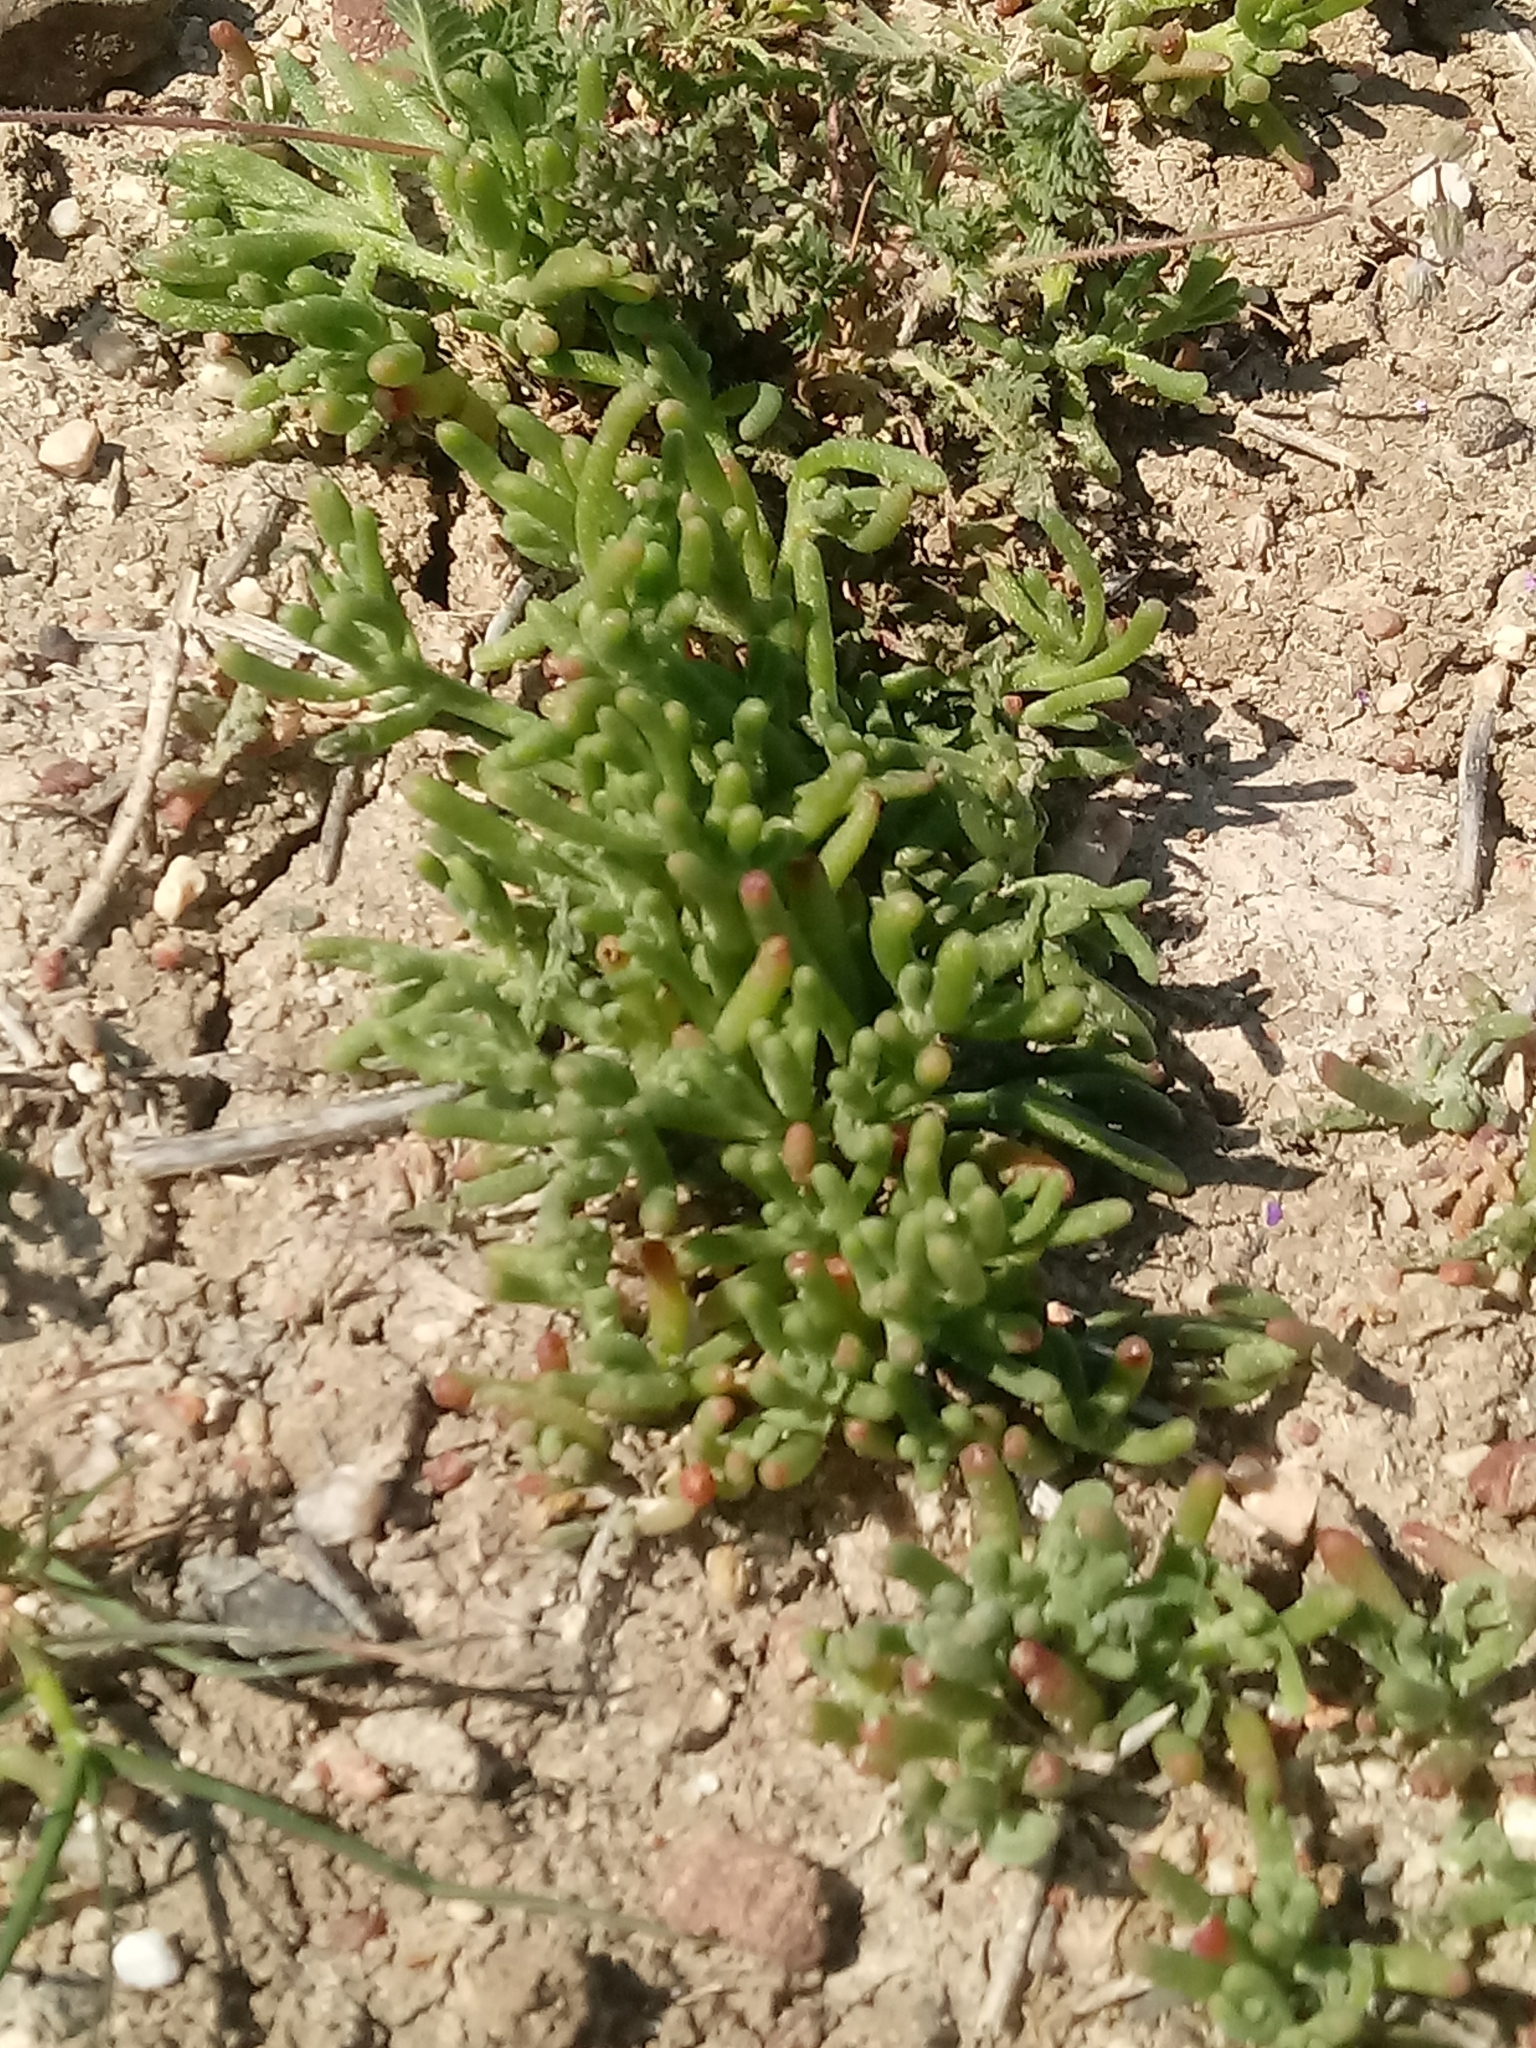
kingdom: Plantae
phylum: Tracheophyta
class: Magnoliopsida
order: Caryophyllales
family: Aizoaceae
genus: Mesembryanthemum
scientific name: Mesembryanthemum nodiflorum
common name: Slenderleaf iceplant
